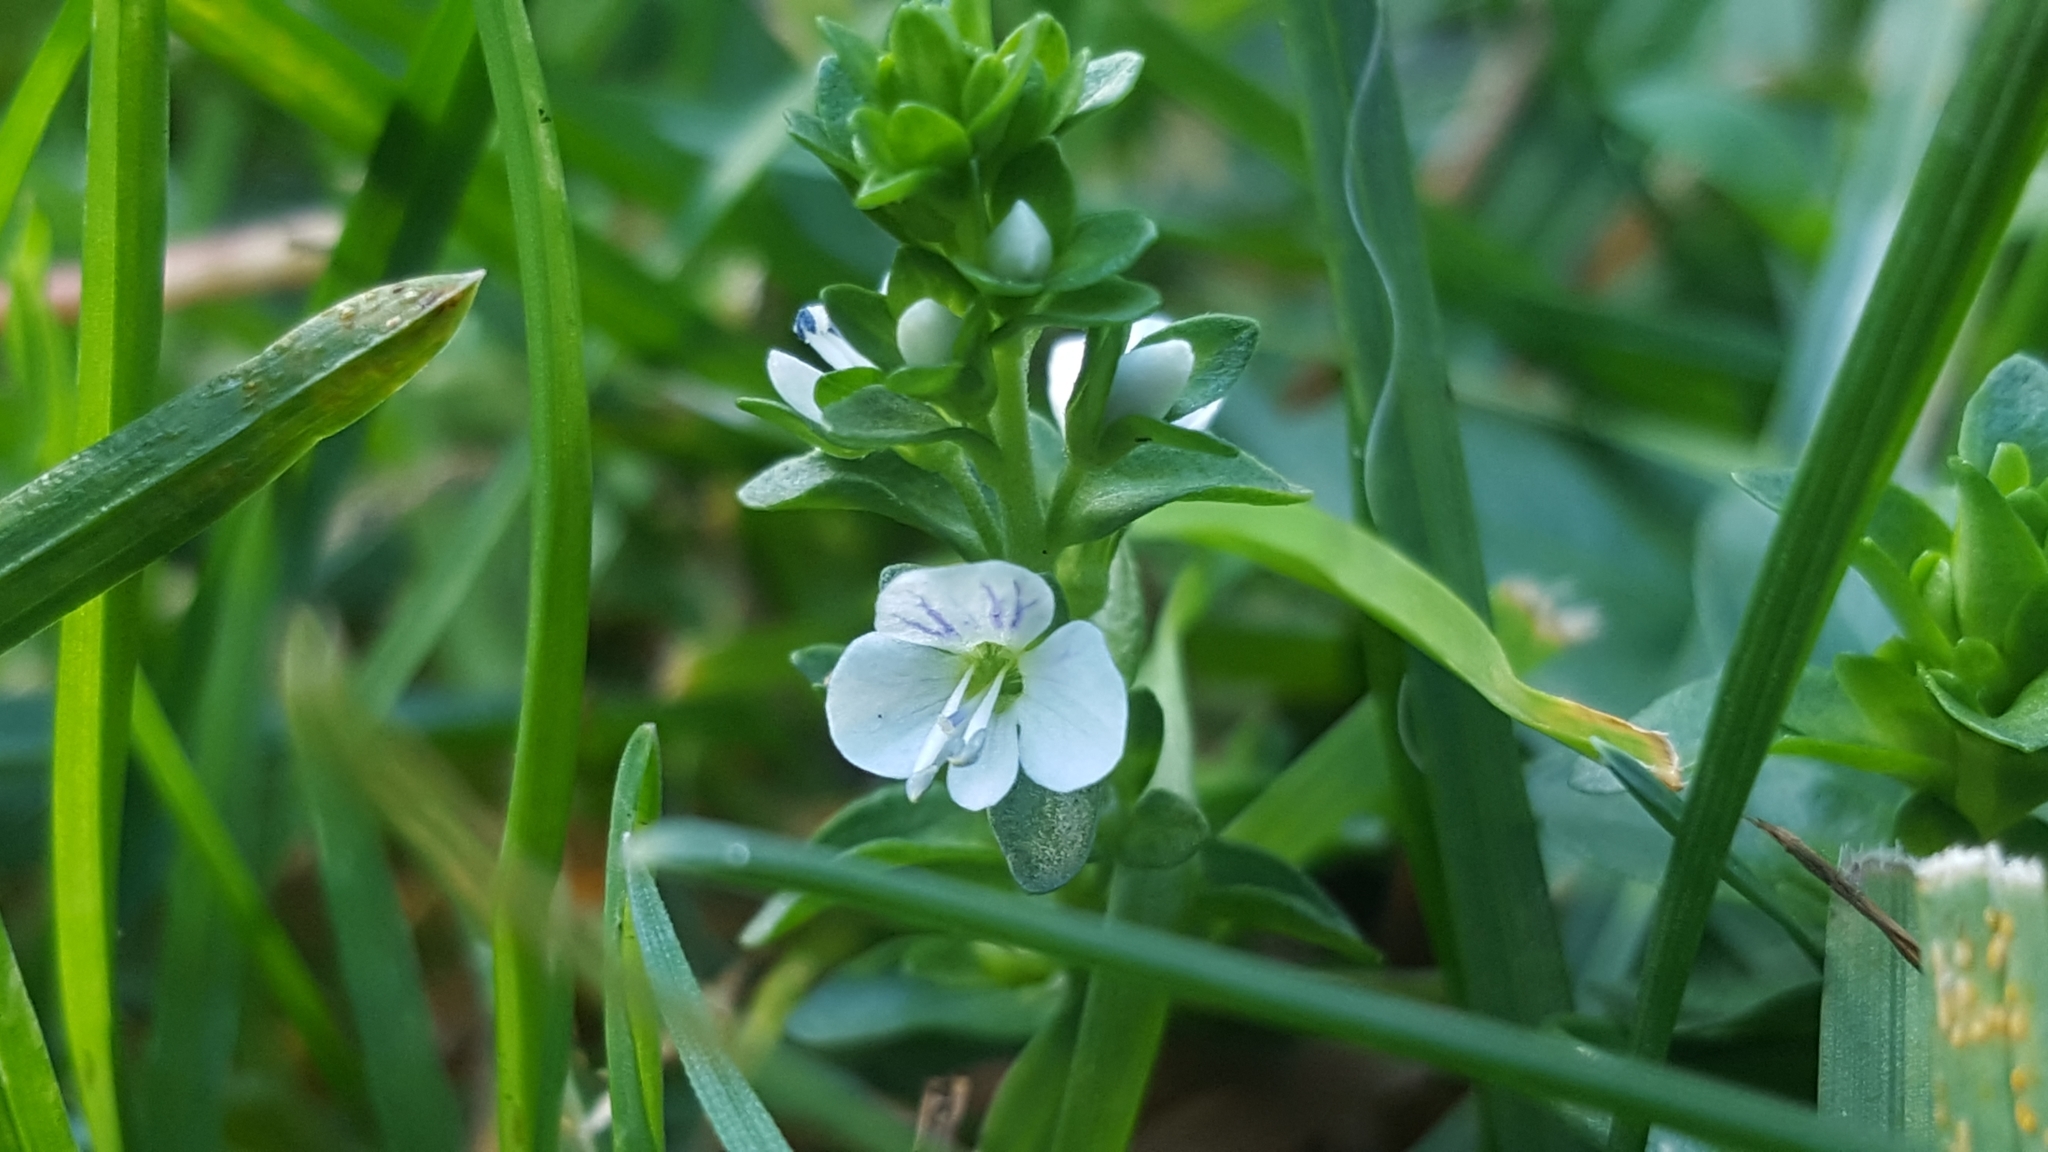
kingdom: Plantae
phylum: Tracheophyta
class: Magnoliopsida
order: Lamiales
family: Plantaginaceae
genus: Veronica
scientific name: Veronica serpyllifolia
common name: Thyme-leaved speedwell
